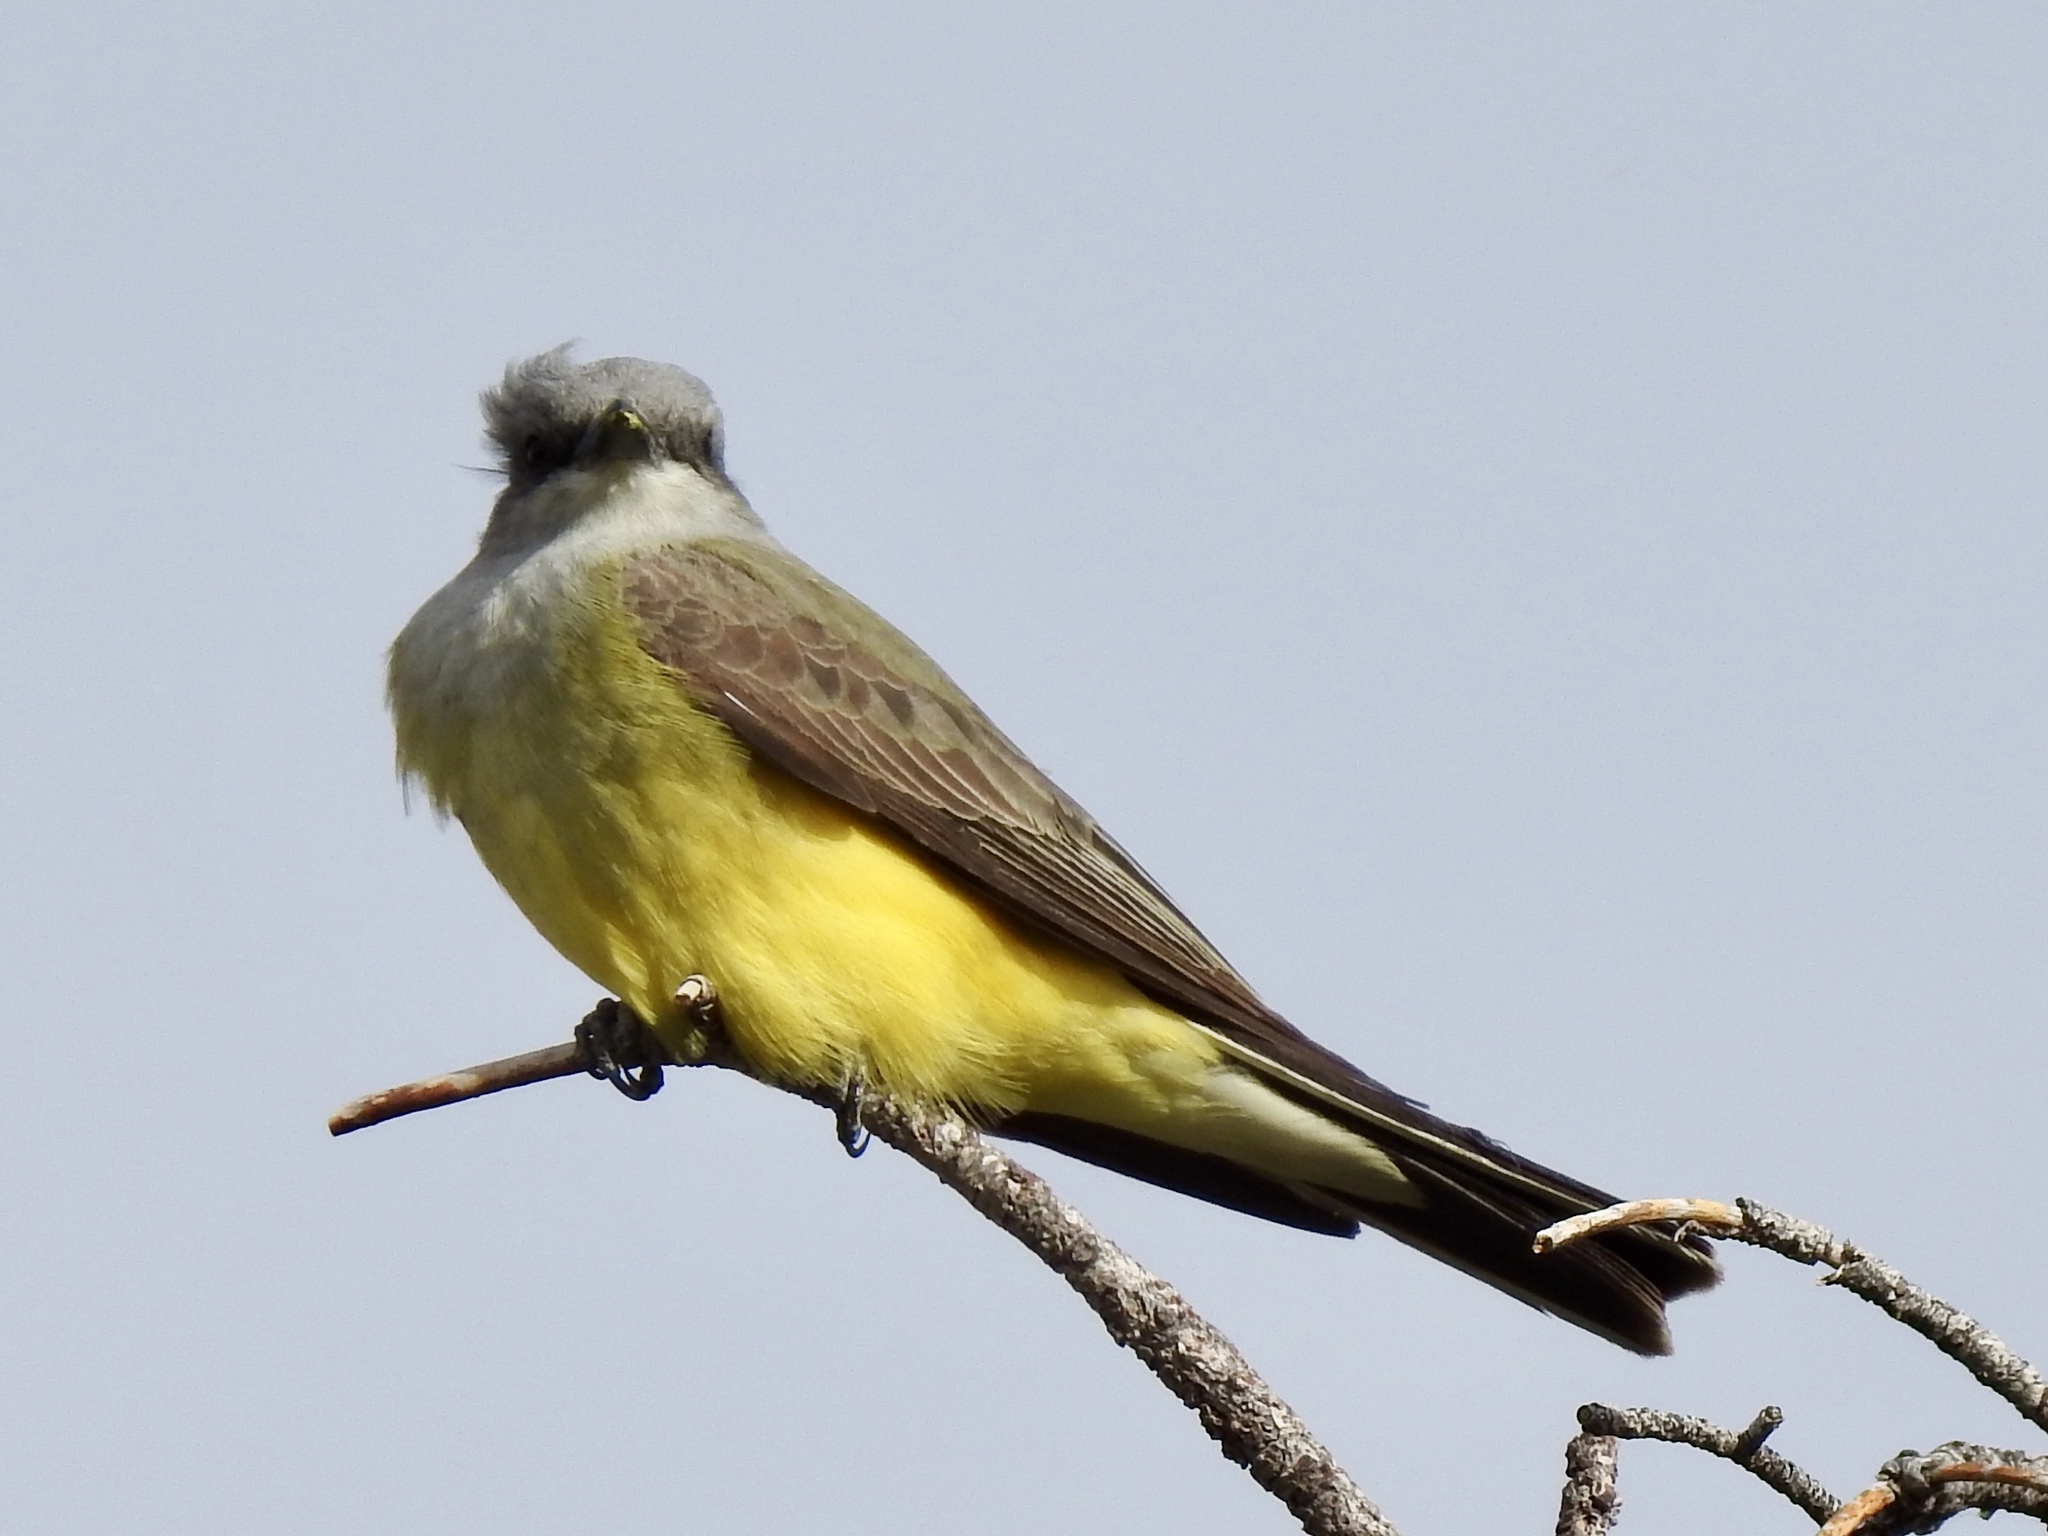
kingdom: Animalia
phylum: Chordata
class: Aves
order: Passeriformes
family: Tyrannidae
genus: Tyrannus
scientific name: Tyrannus verticalis
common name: Western kingbird
